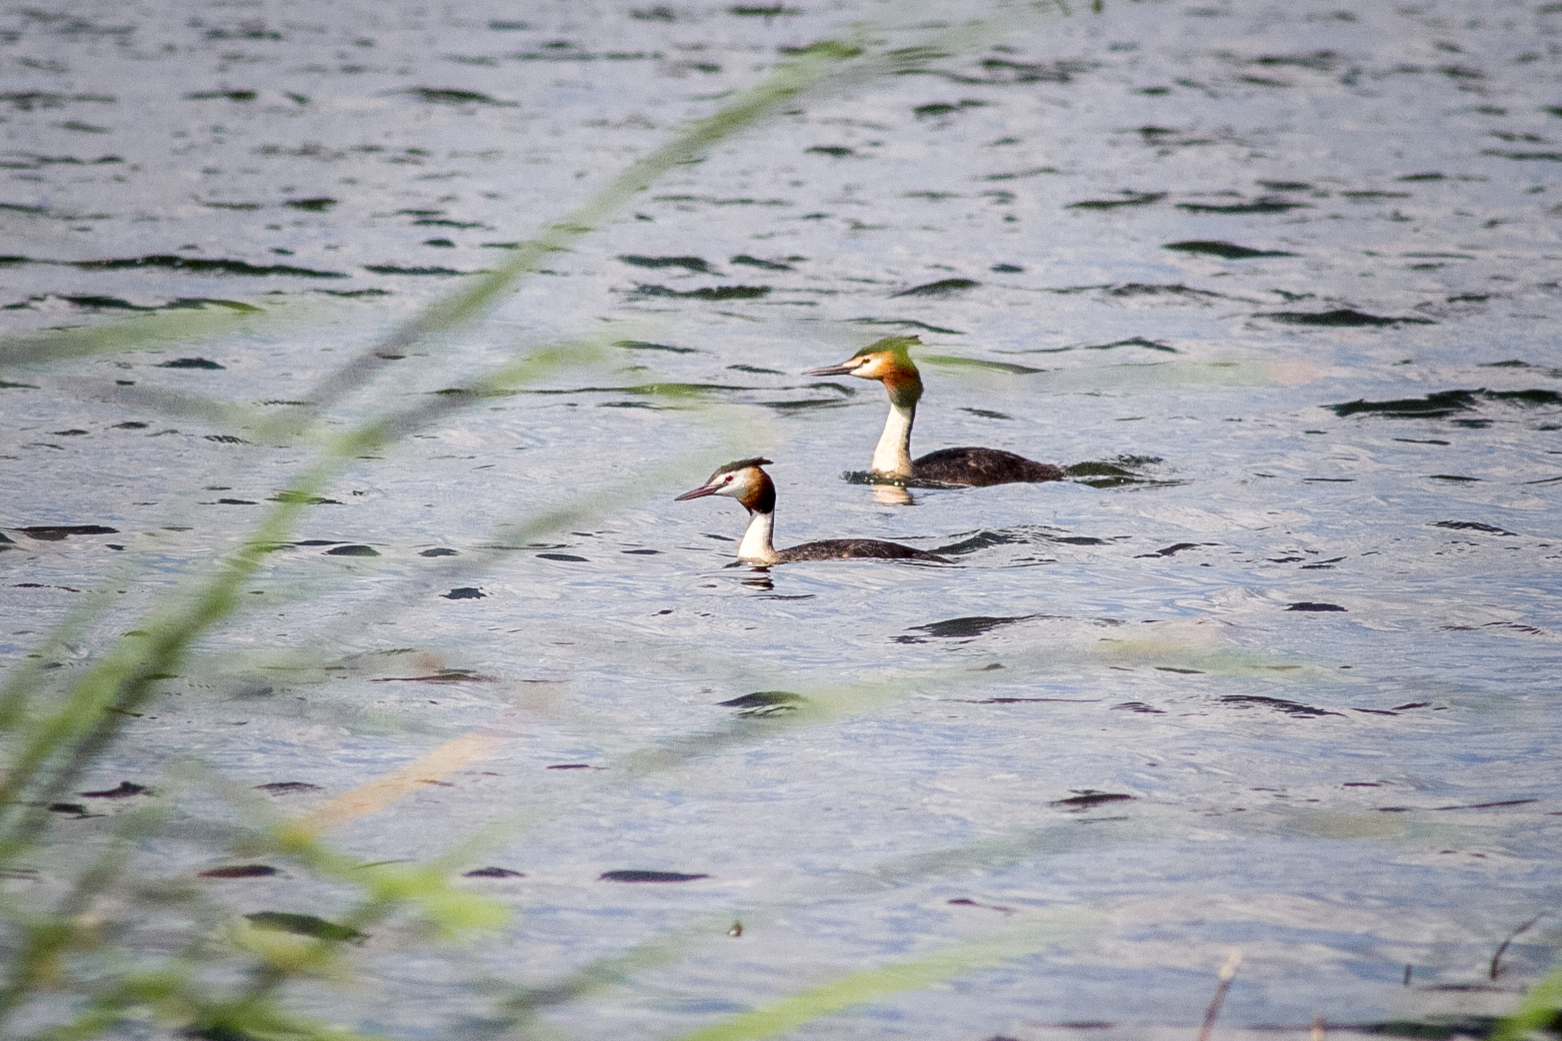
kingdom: Animalia
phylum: Chordata
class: Aves
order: Podicipediformes
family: Podicipedidae
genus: Podiceps
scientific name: Podiceps cristatus
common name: Great crested grebe
